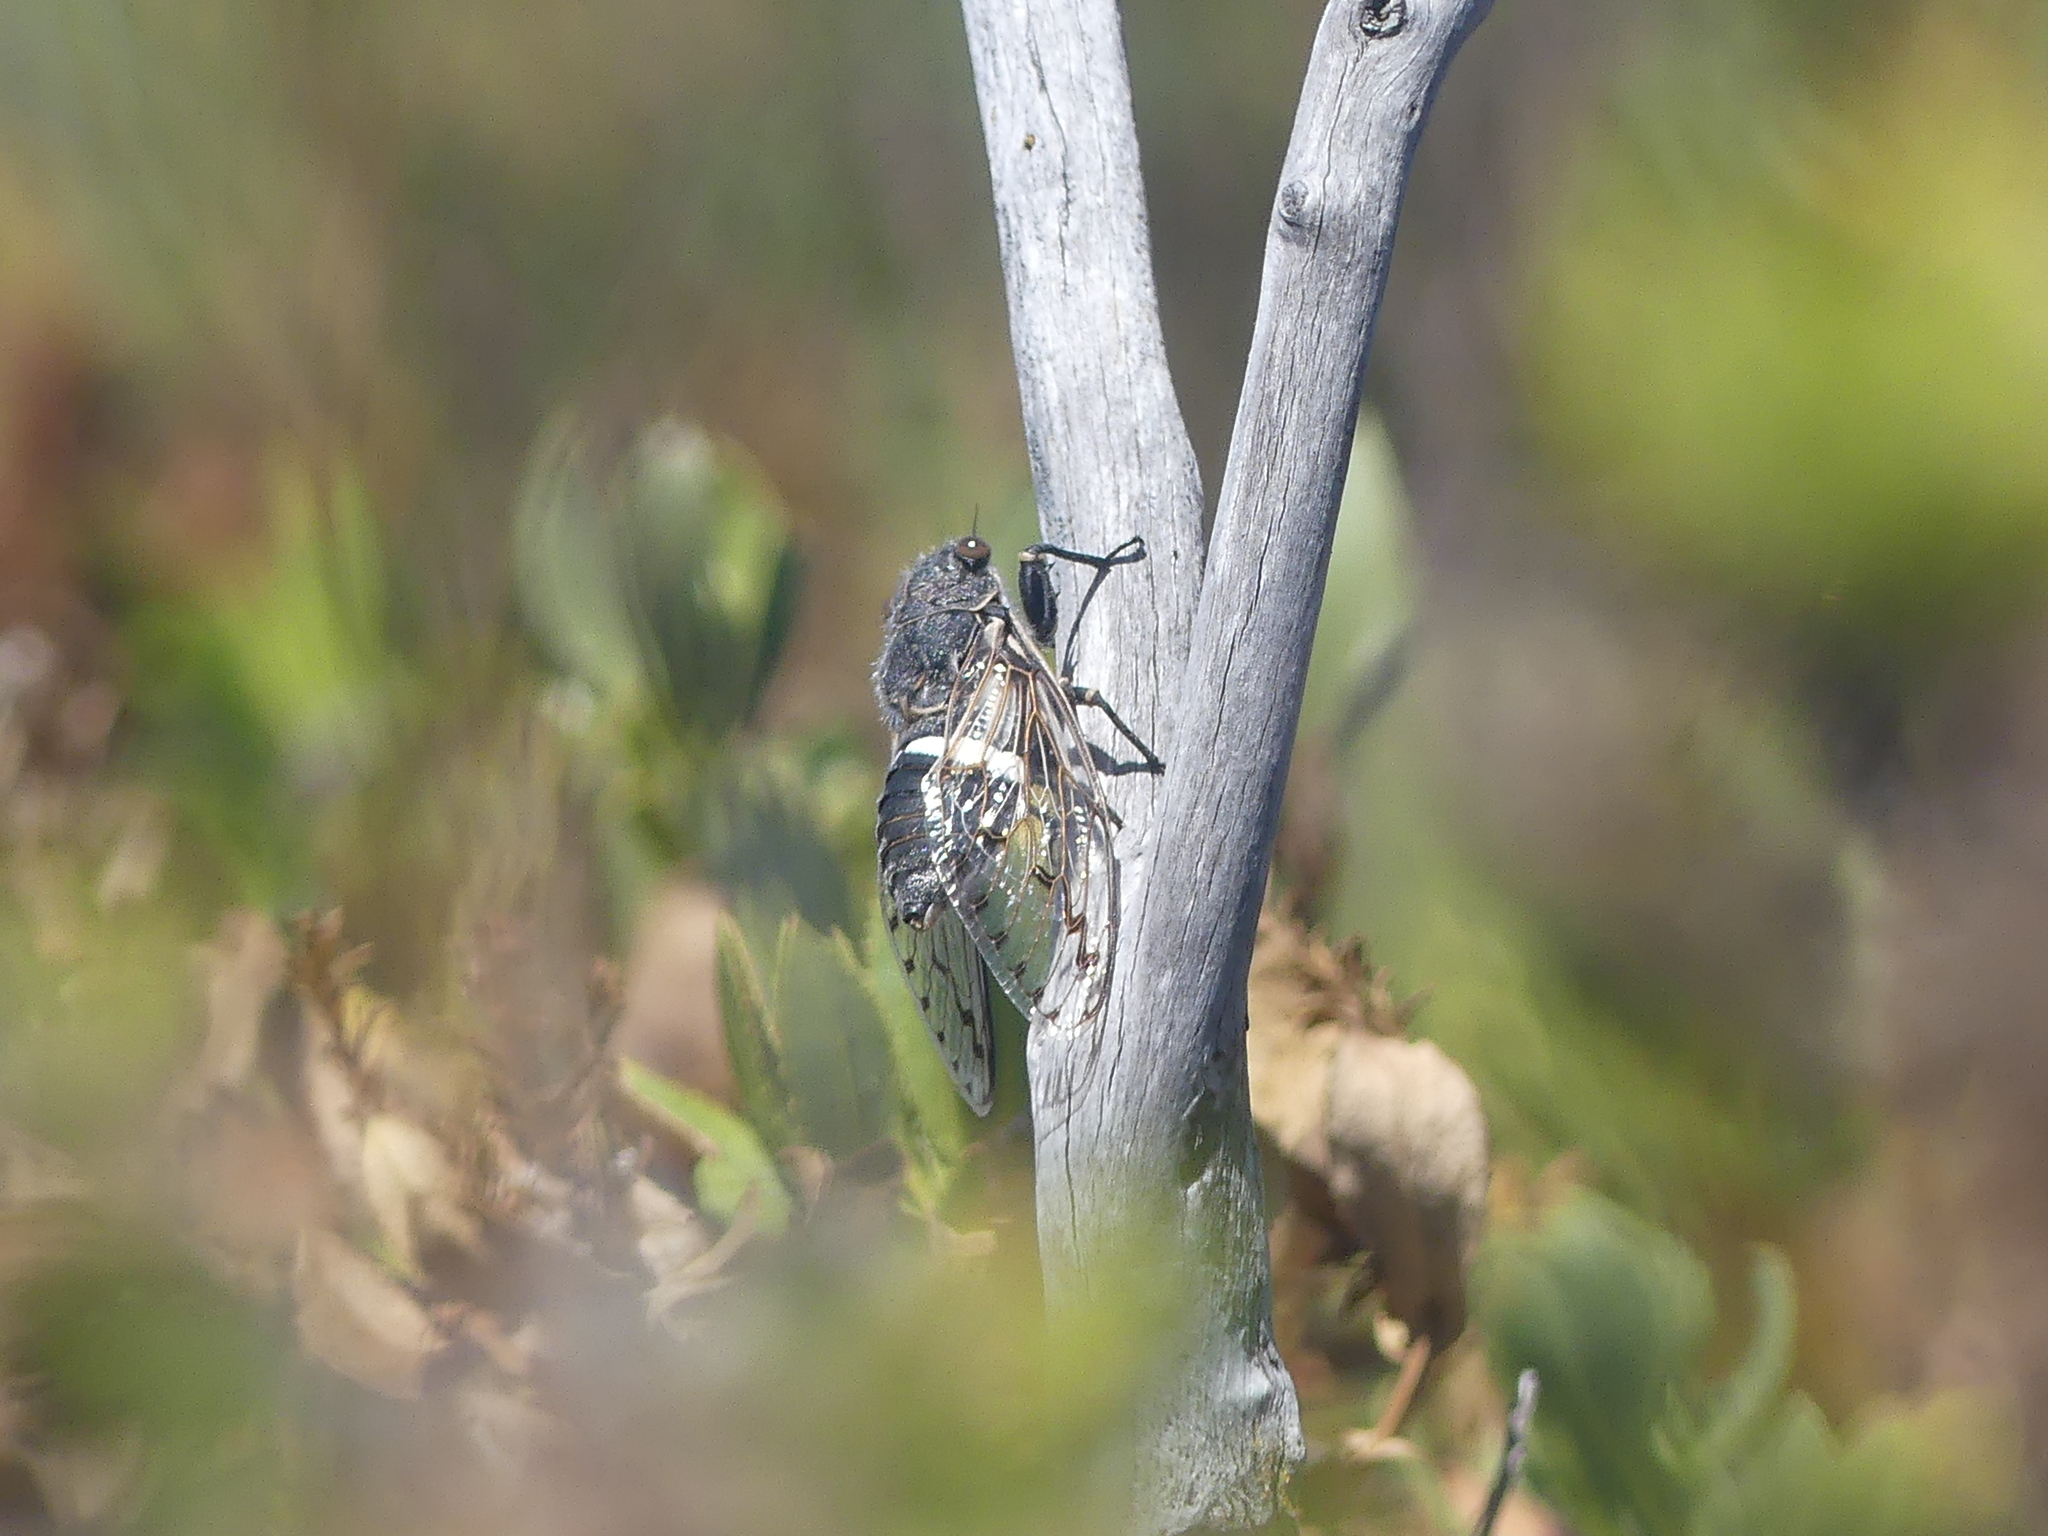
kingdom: Animalia
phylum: Arthropoda
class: Insecta
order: Hemiptera
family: Cicadidae
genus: Arenopsaltria
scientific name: Arenopsaltria fullo
